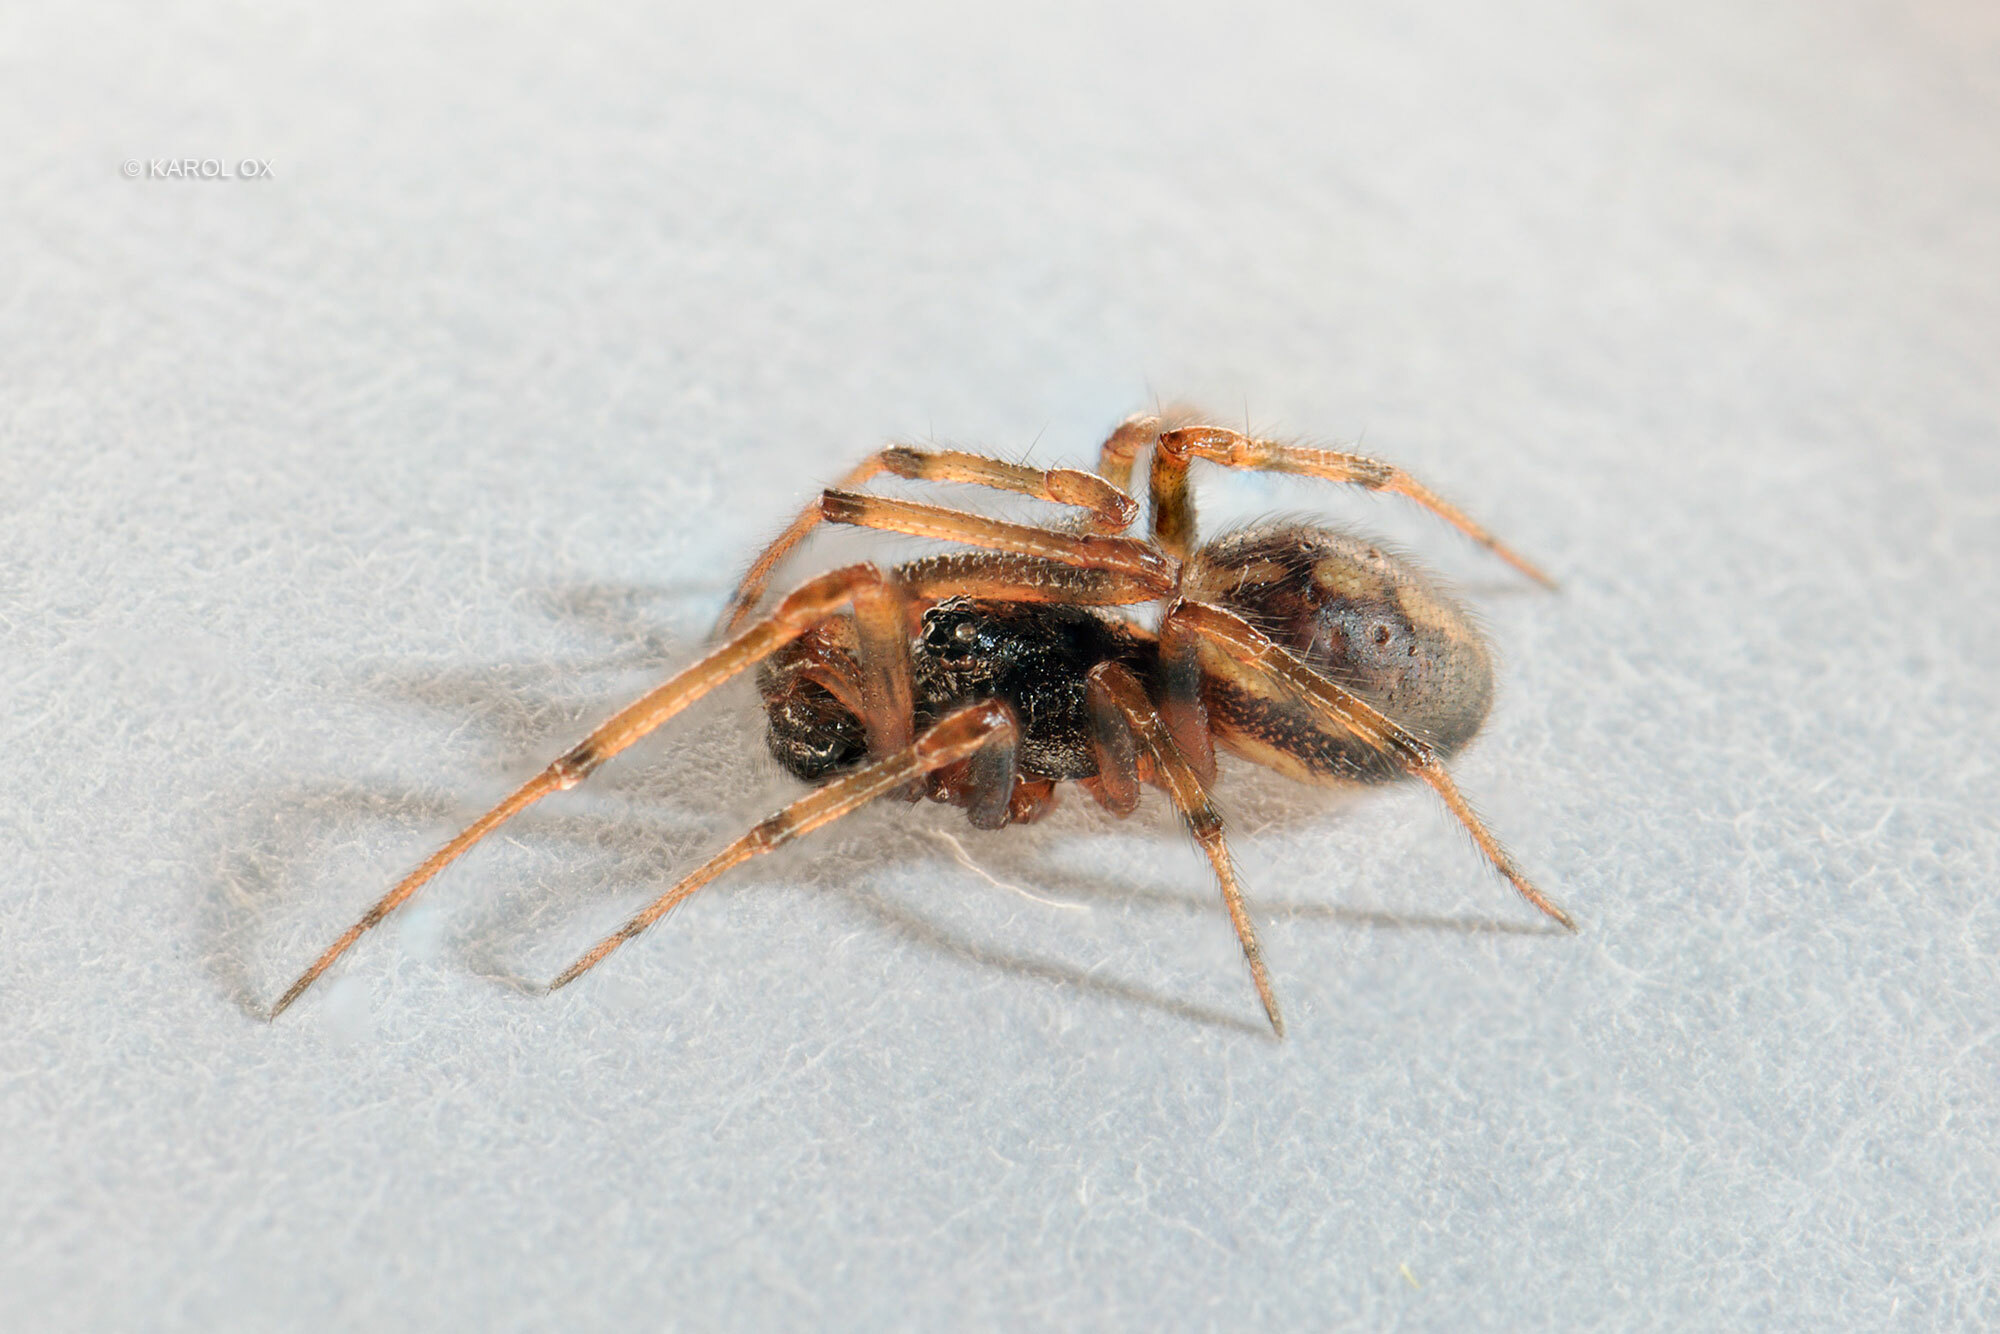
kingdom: Animalia
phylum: Arthropoda
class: Arachnida
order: Araneae
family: Theridiidae
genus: Steatoda
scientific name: Steatoda bipunctata
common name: False widow
